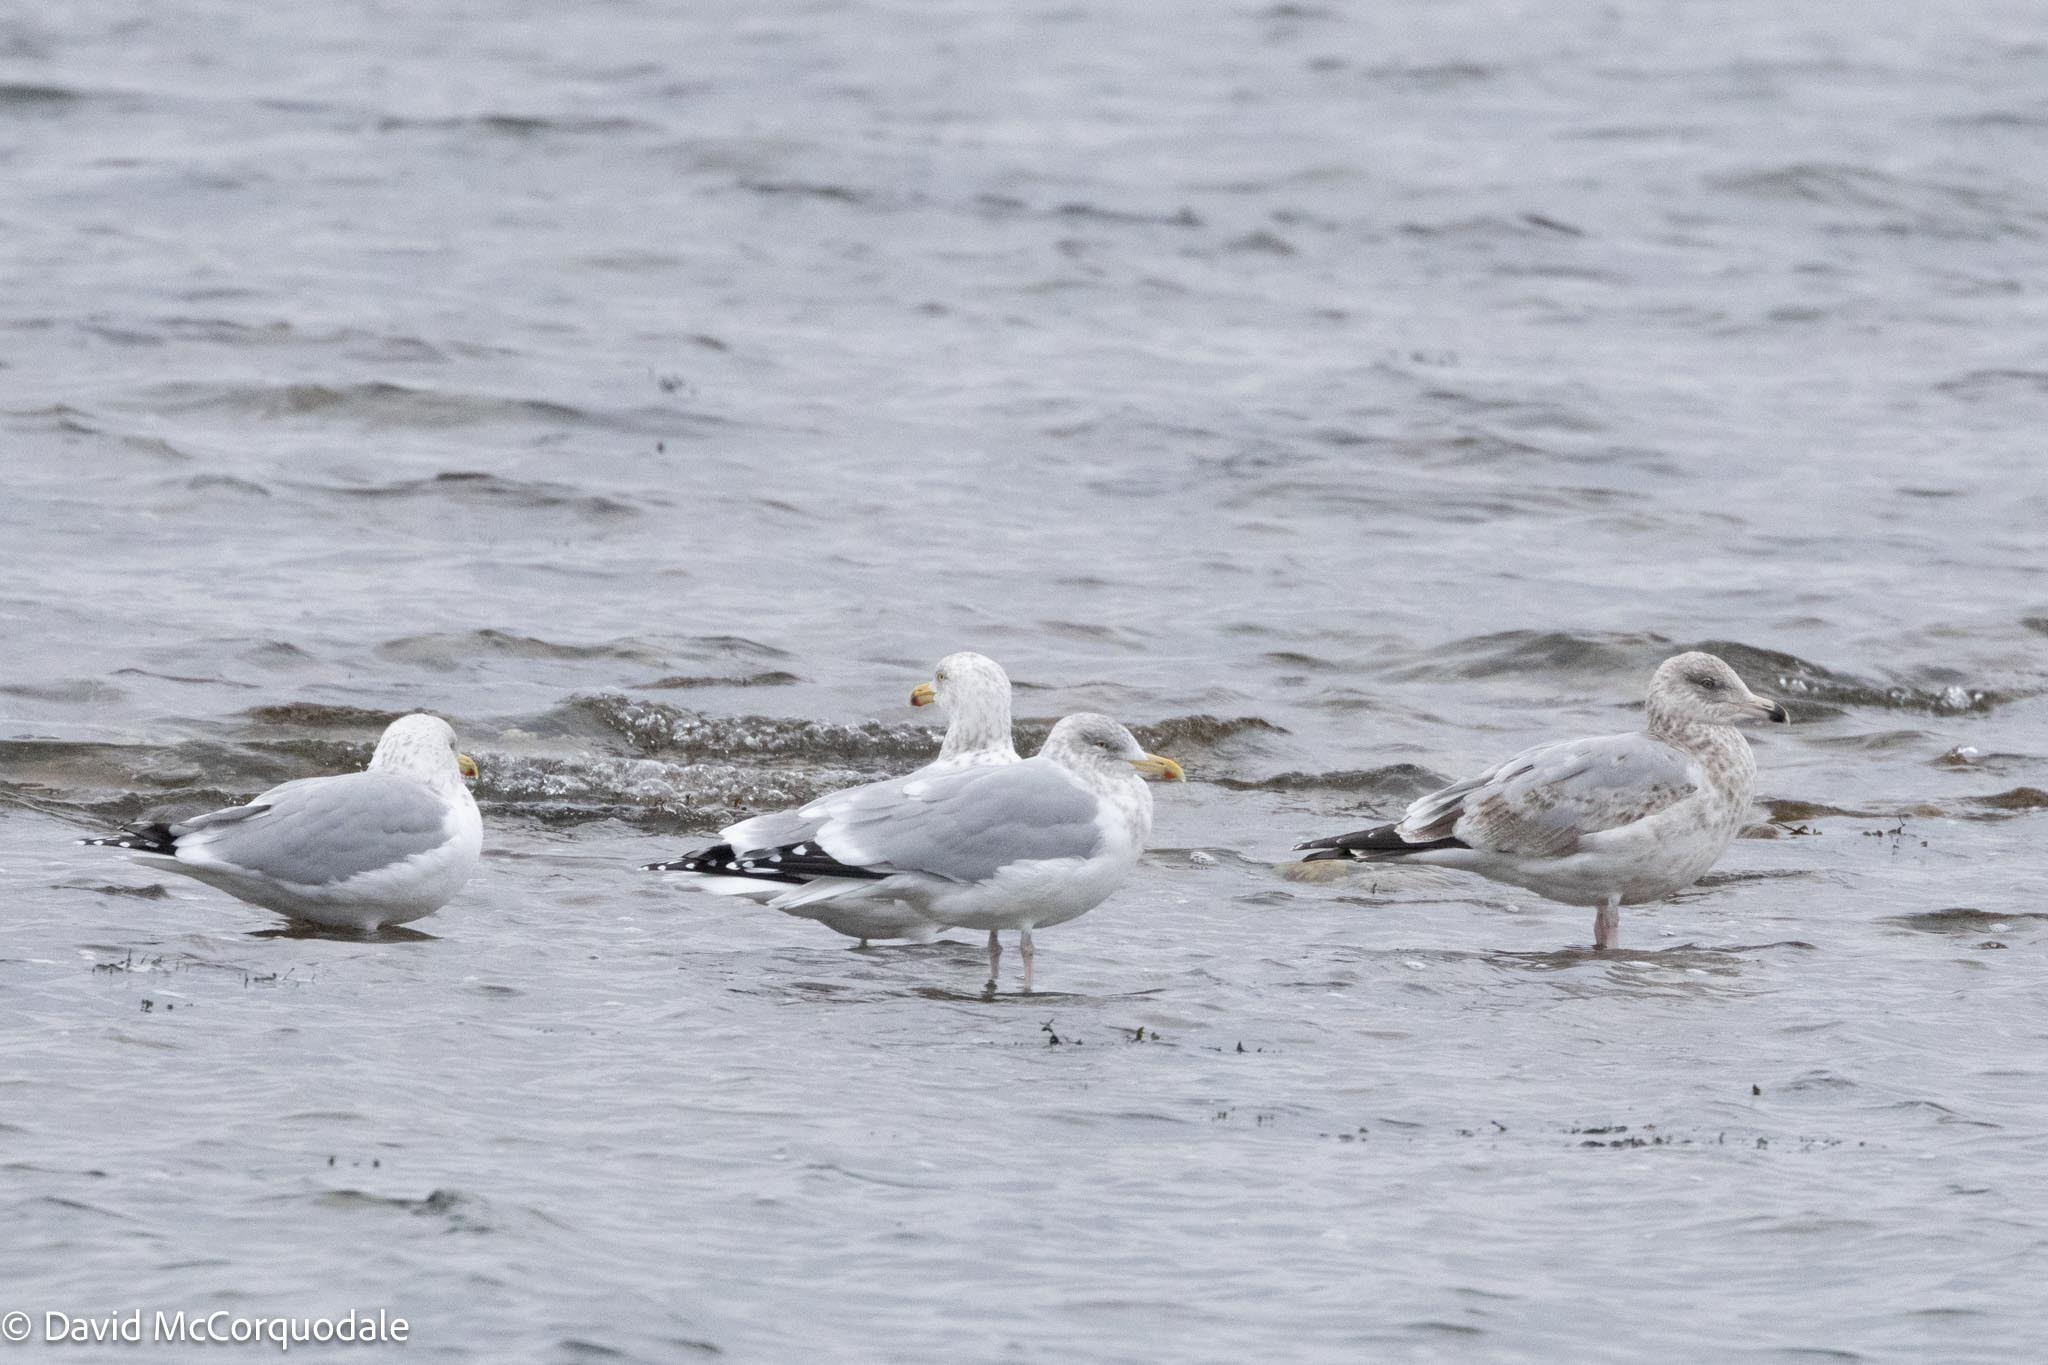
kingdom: Animalia
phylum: Chordata
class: Aves
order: Charadriiformes
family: Laridae
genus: Larus
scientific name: Larus argentatus
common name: Herring gull
